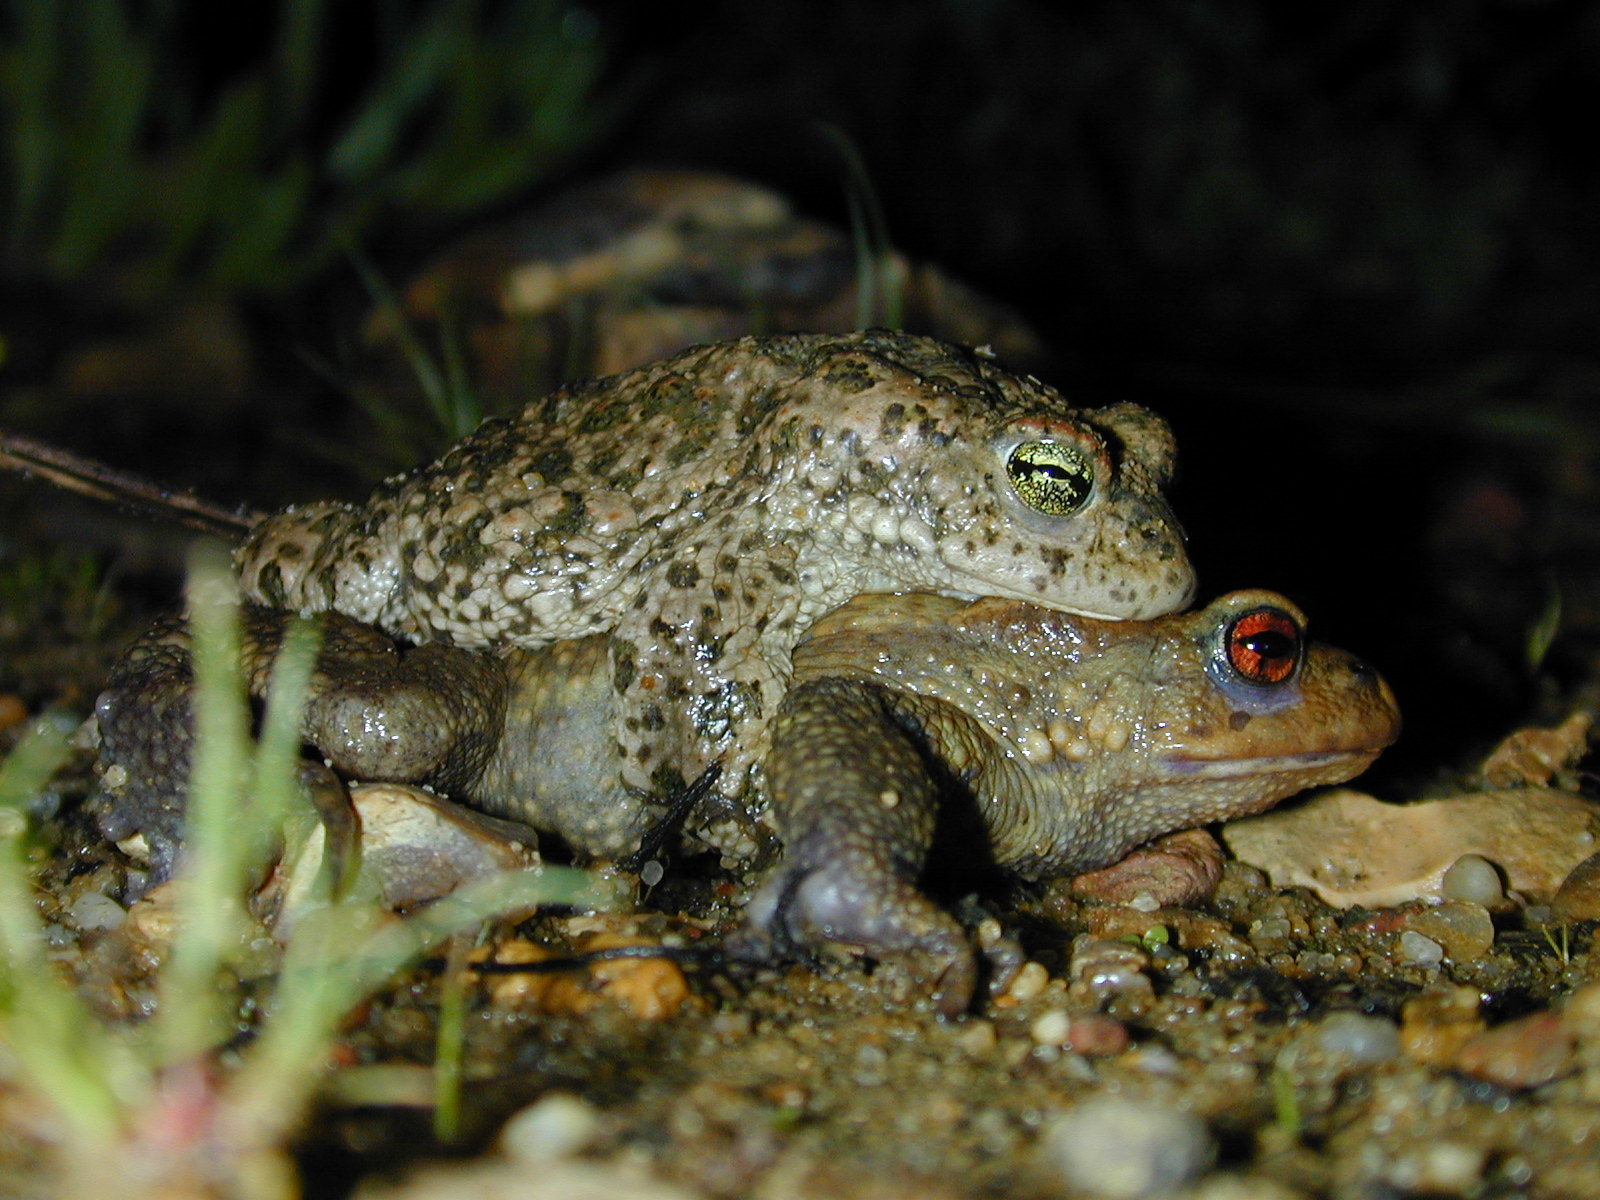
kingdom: Animalia
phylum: Chordata
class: Amphibia
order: Anura
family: Bufonidae
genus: Epidalea
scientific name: Epidalea calamita
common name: Natterjack toad
